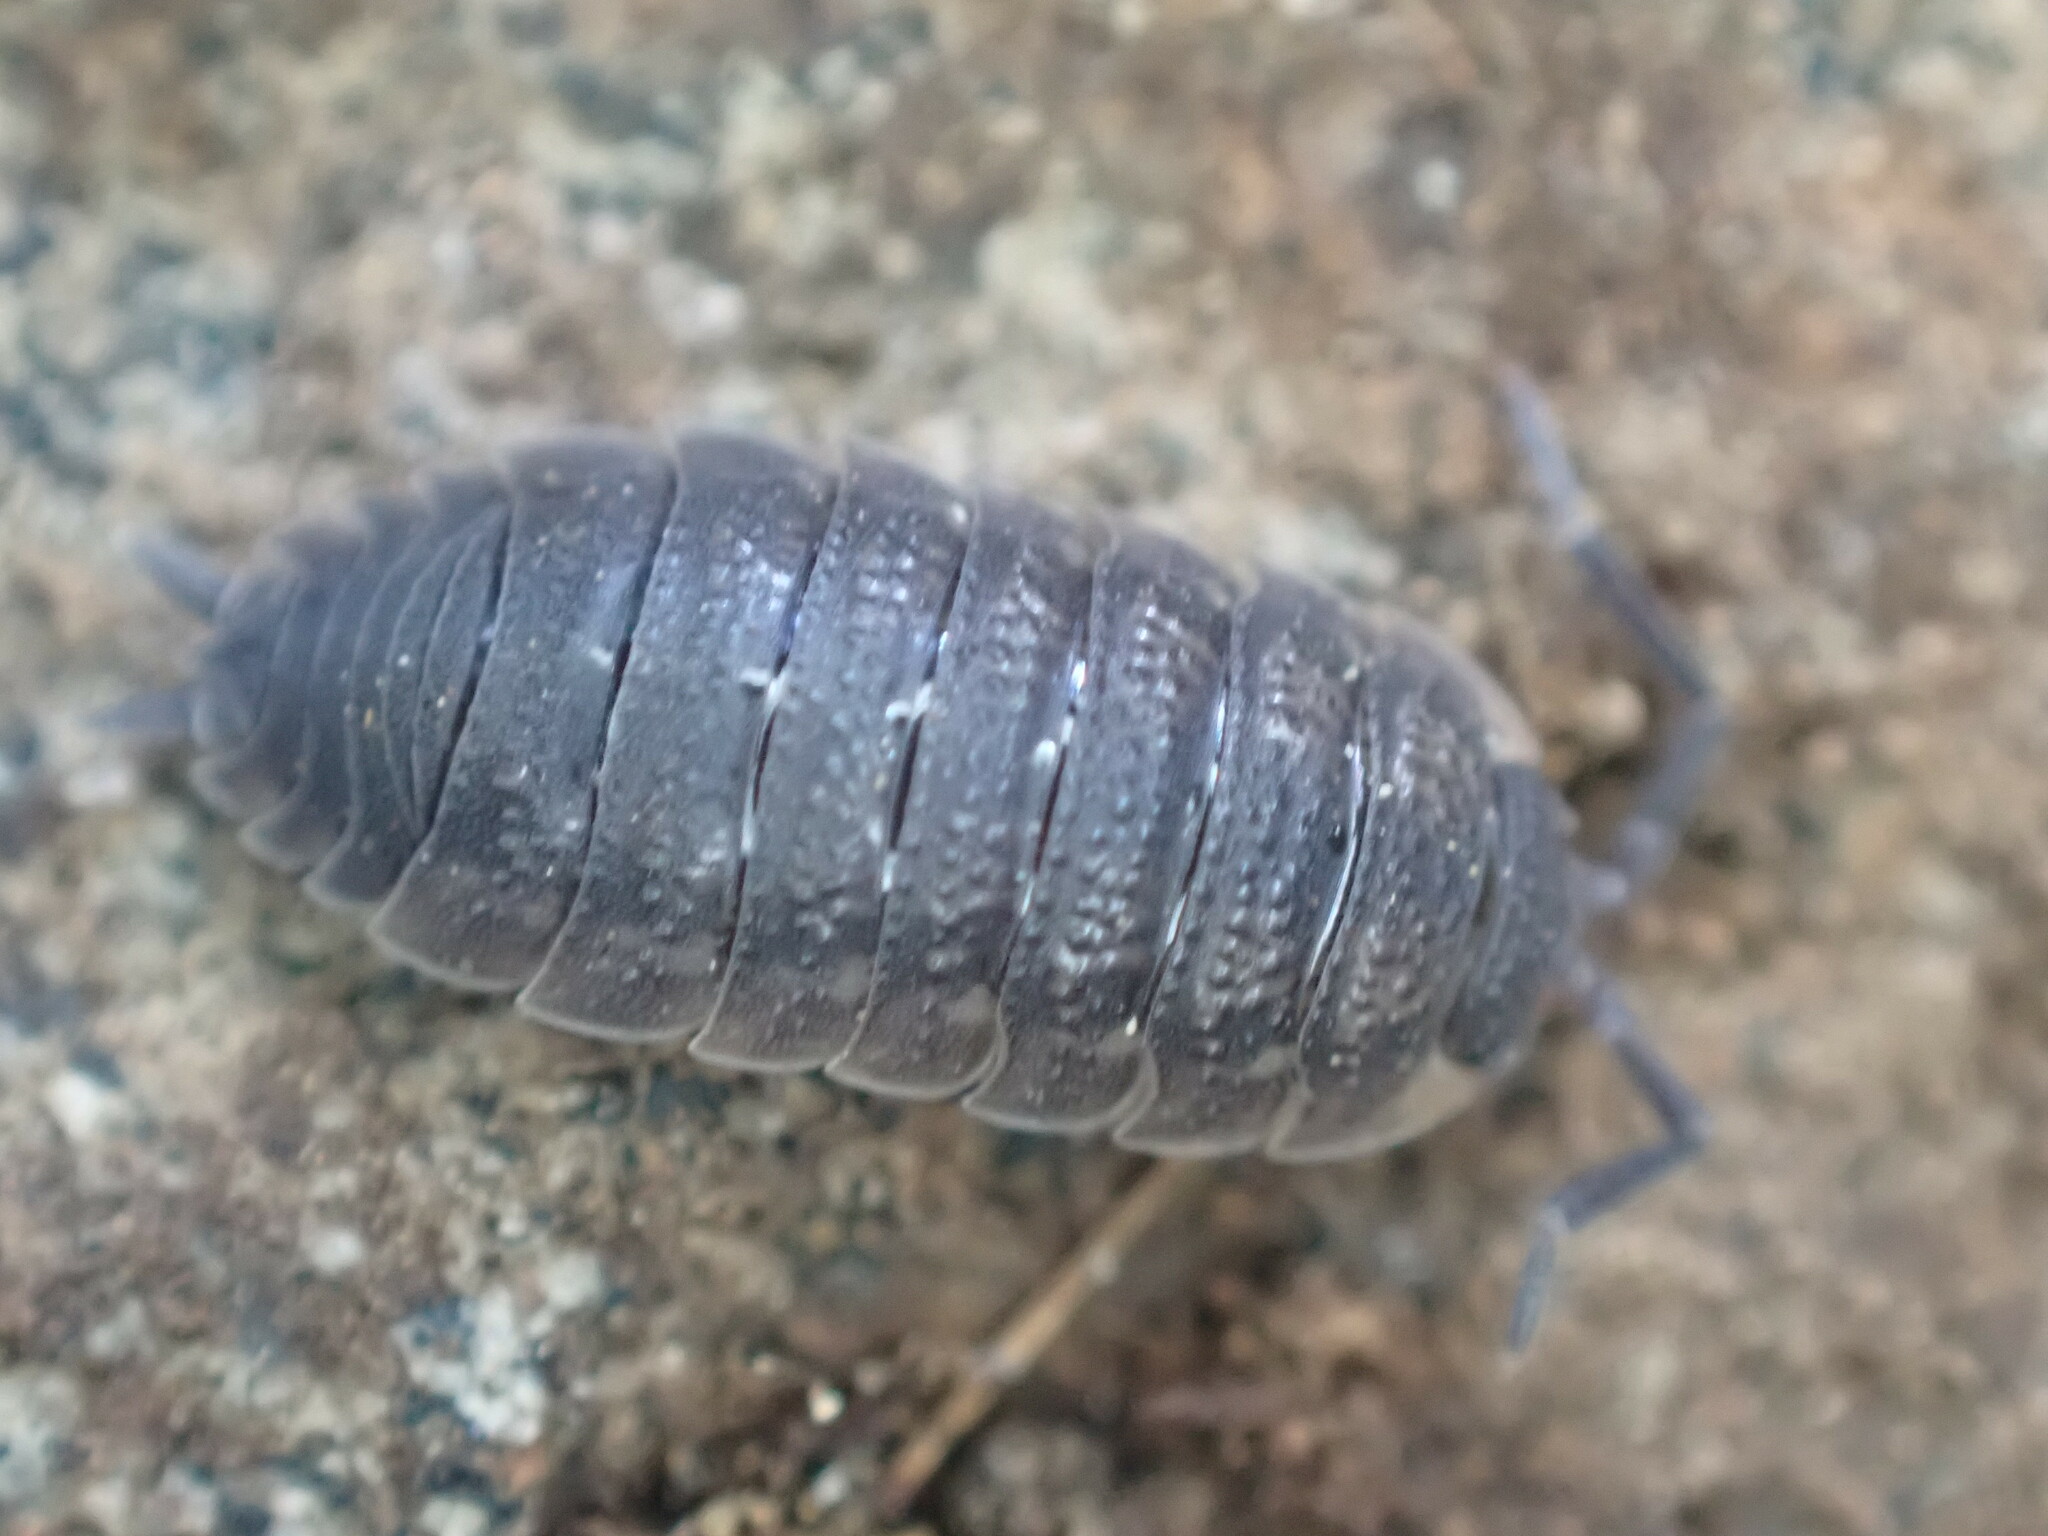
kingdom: Animalia
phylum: Arthropoda
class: Malacostraca
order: Isopoda
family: Porcellionidae
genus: Porcellio
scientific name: Porcellio scaber
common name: Common rough woodlouse
